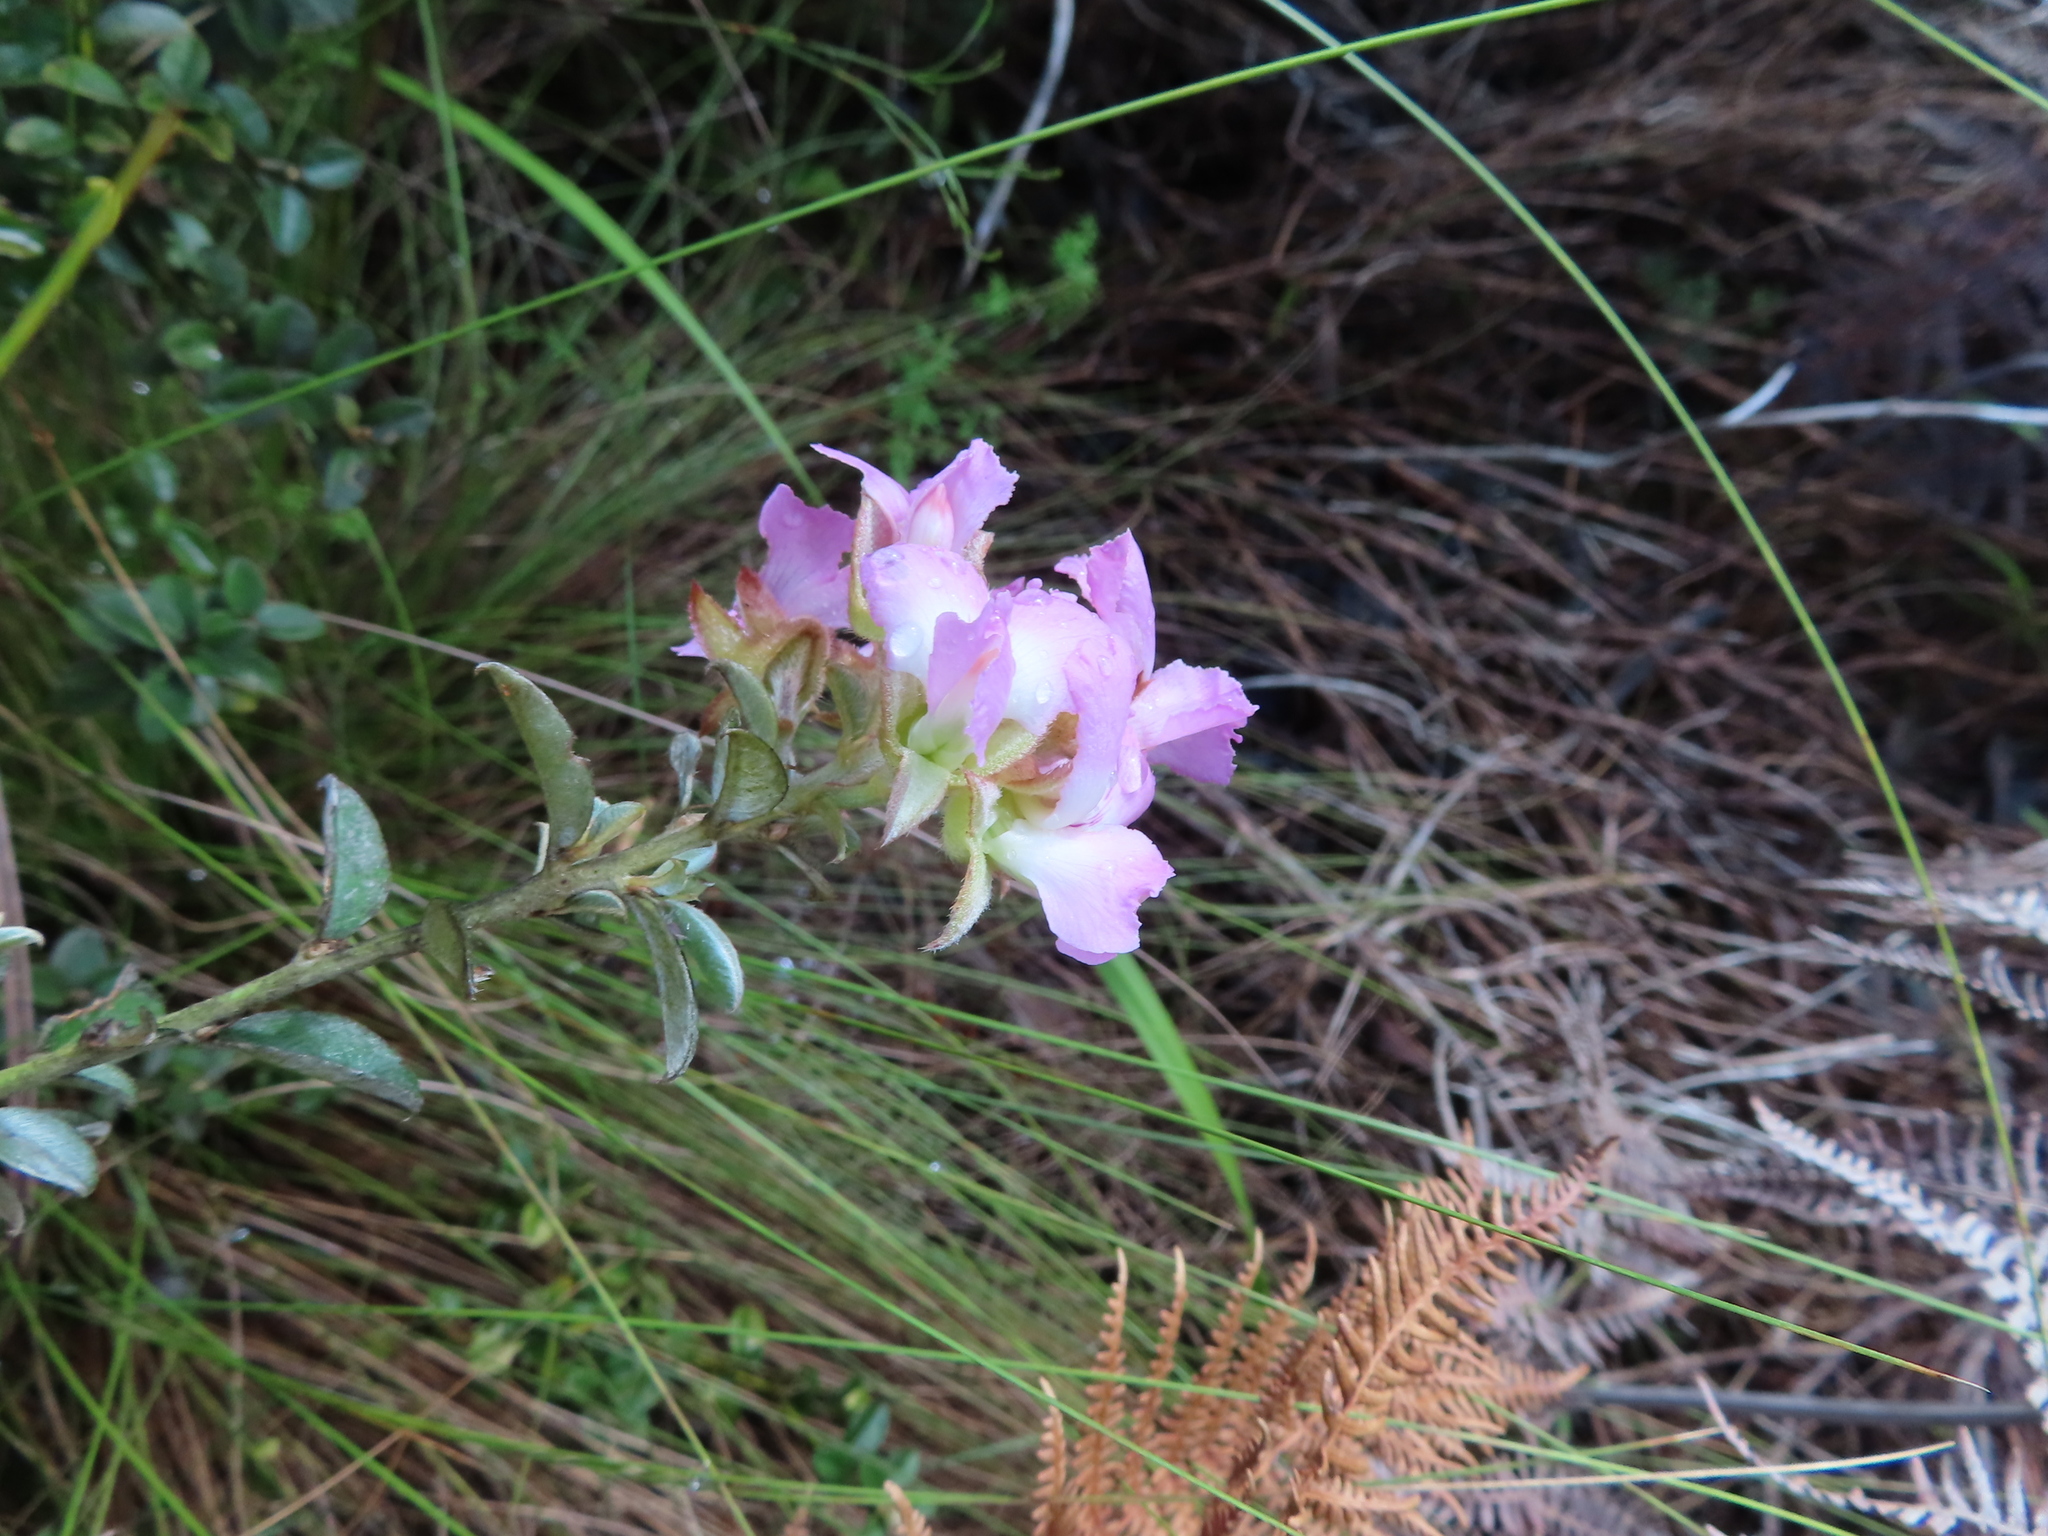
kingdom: Plantae
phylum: Tracheophyta
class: Magnoliopsida
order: Fabales
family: Fabaceae
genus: Podalyria
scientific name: Podalyria variabilis
